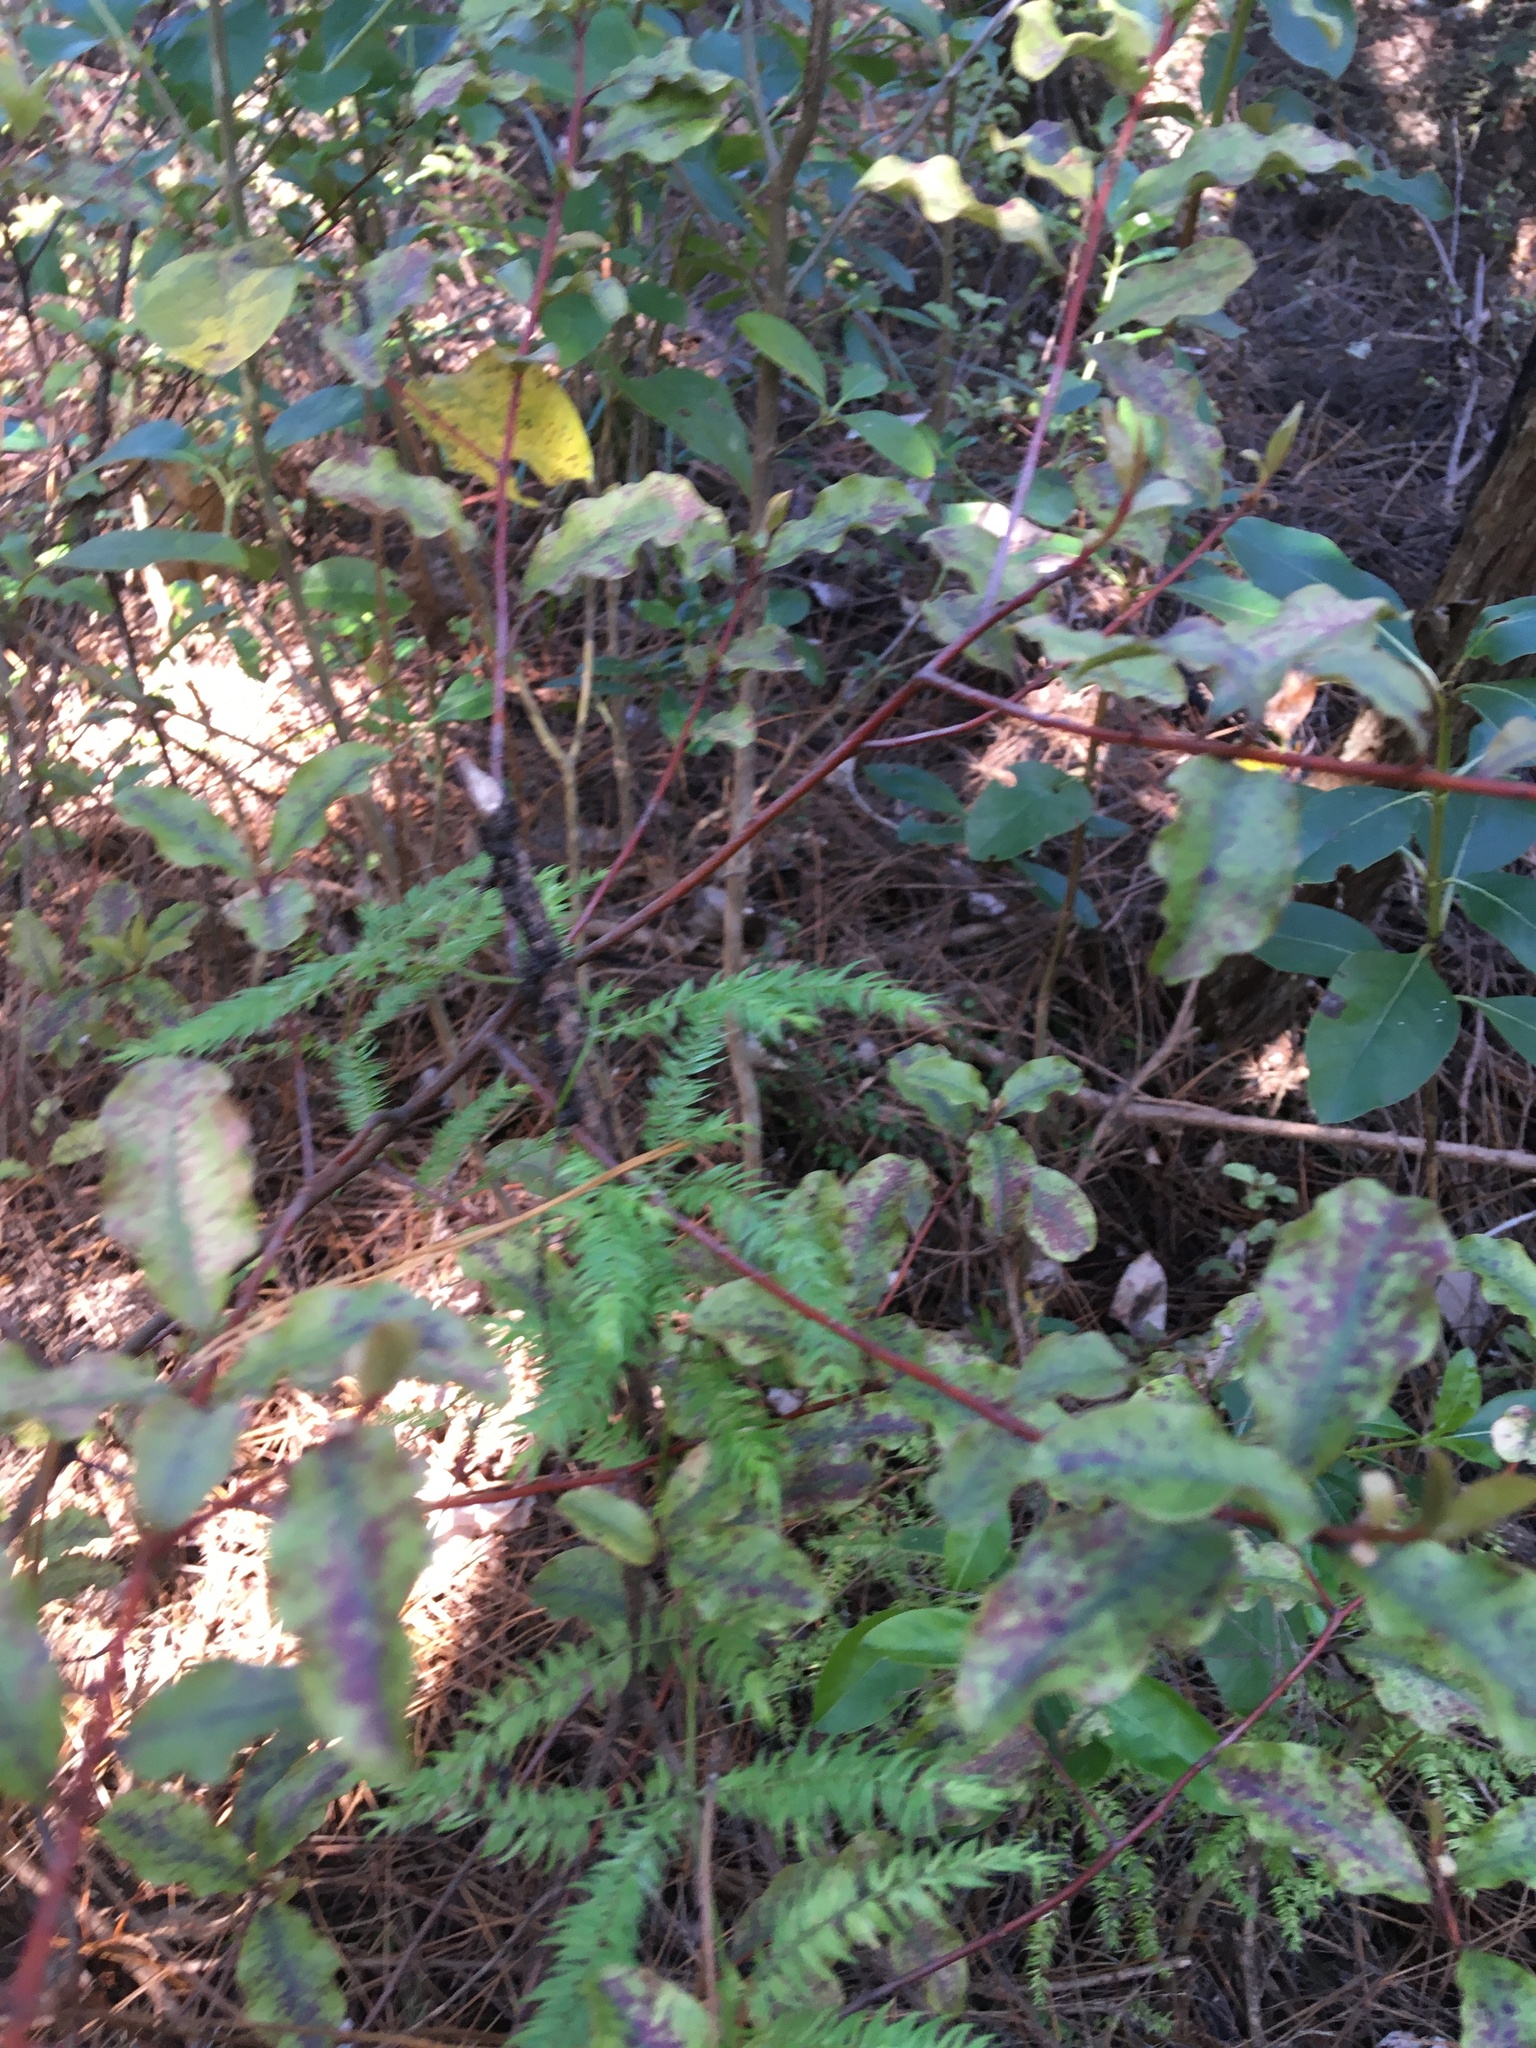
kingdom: Plantae
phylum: Tracheophyta
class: Magnoliopsida
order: Ericales
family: Primulaceae
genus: Myrsine
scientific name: Myrsine australis
